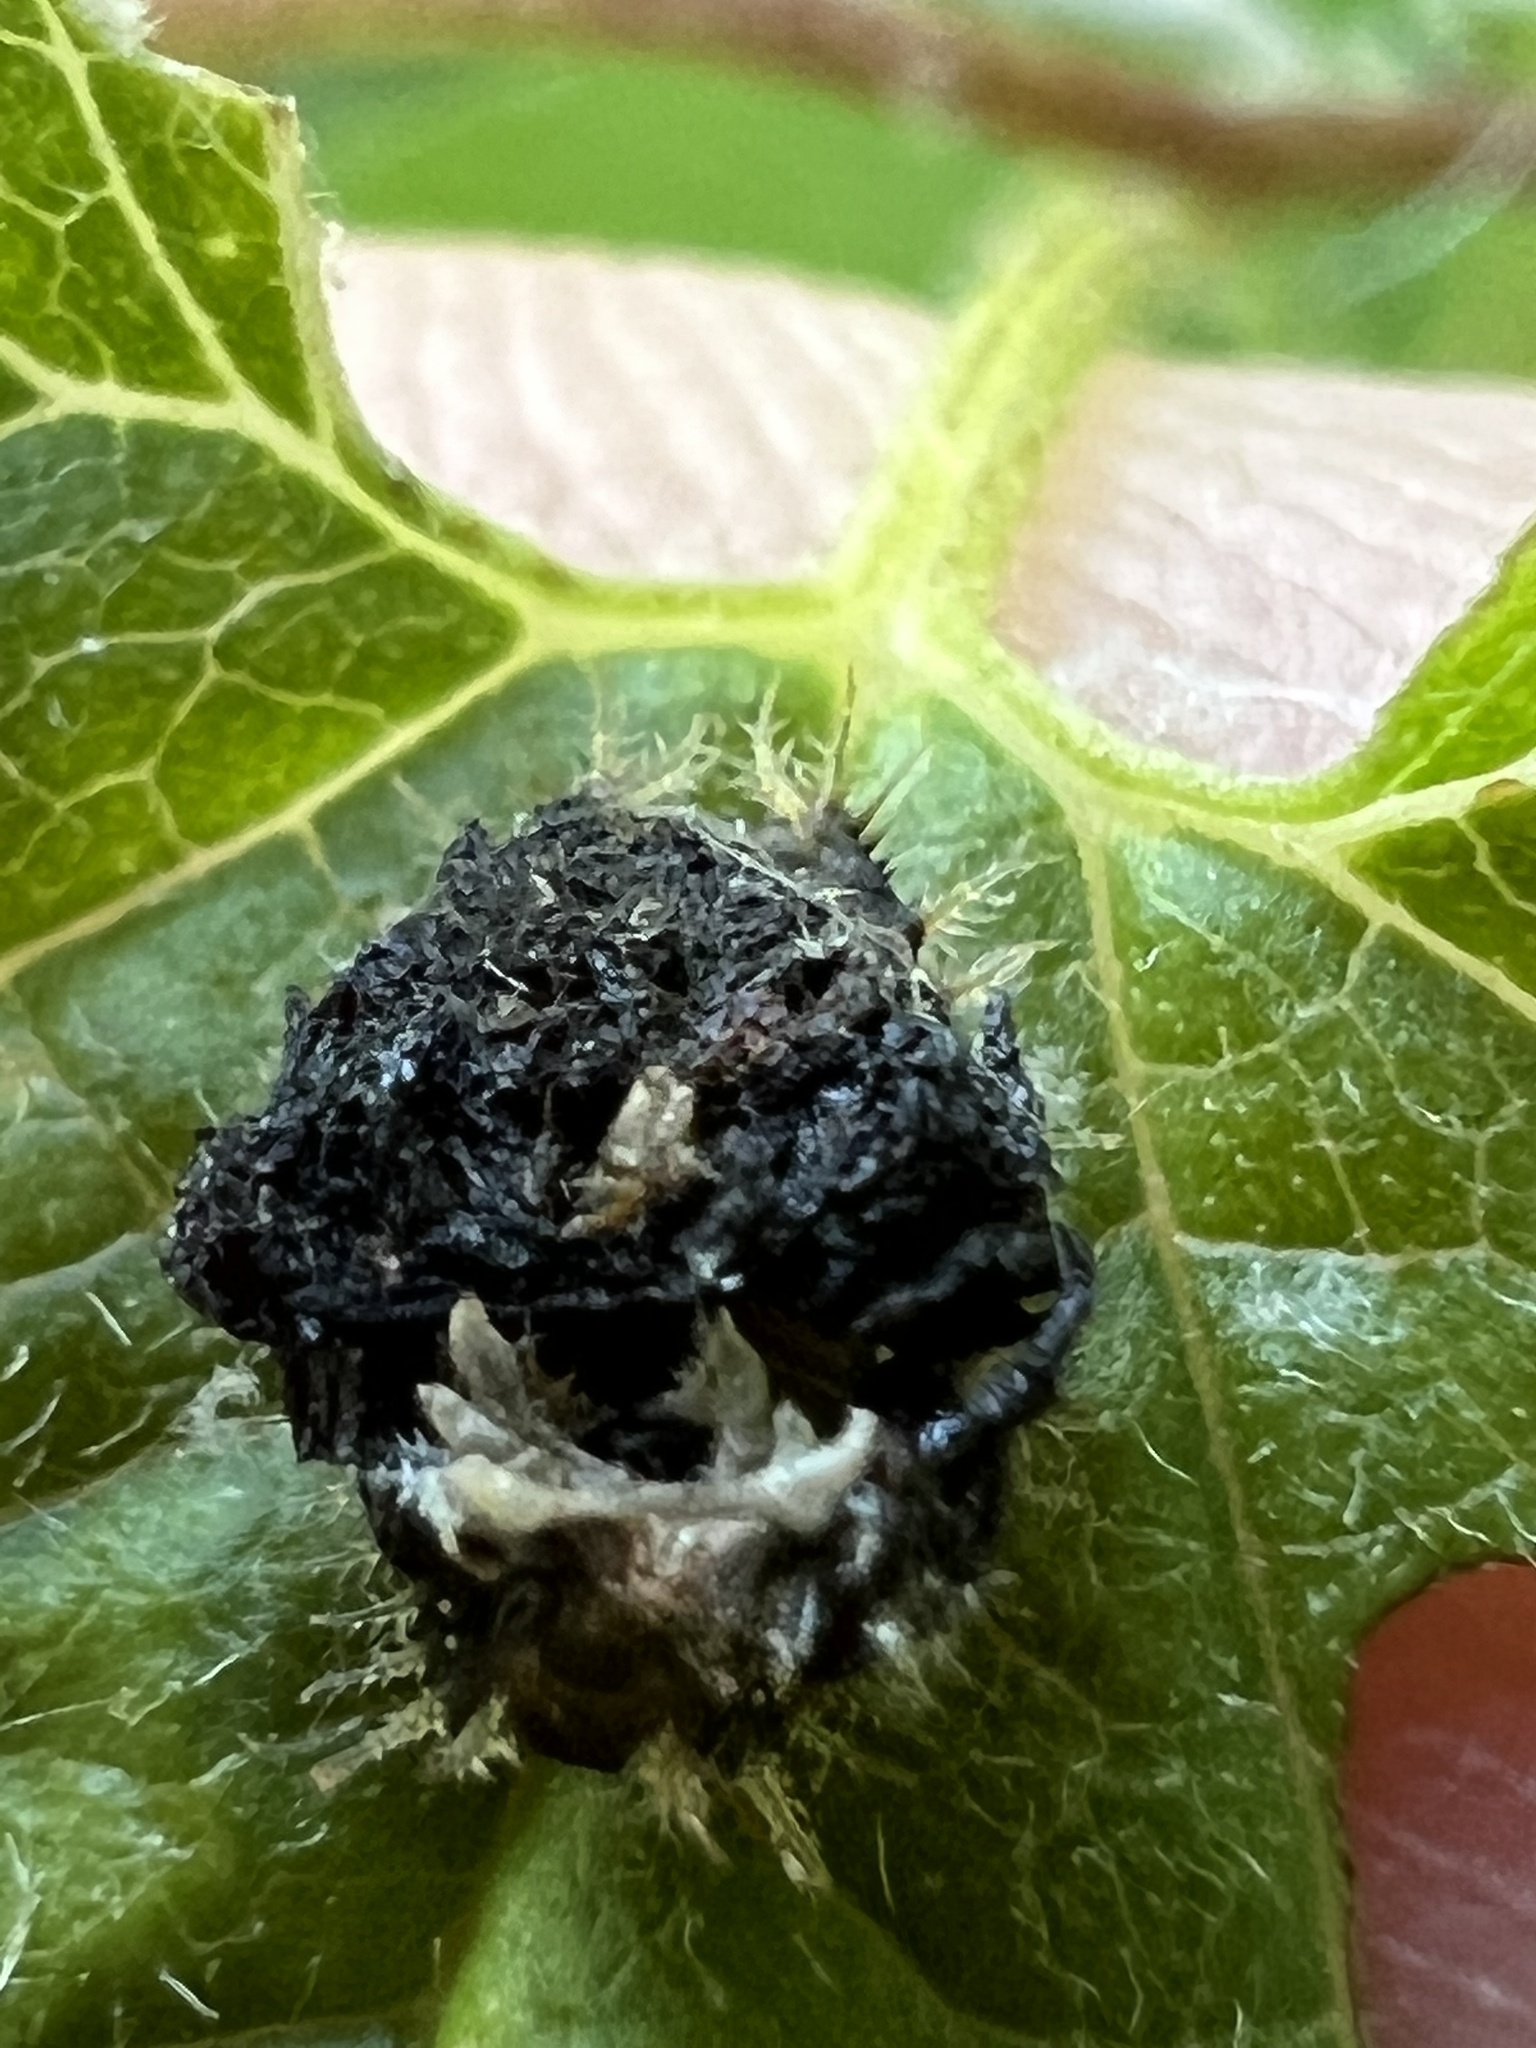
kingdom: Animalia
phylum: Arthropoda
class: Insecta
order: Coleoptera
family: Chrysomelidae
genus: Charidotella
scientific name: Charidotella sexpunctata
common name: Golden tortoise beetle
